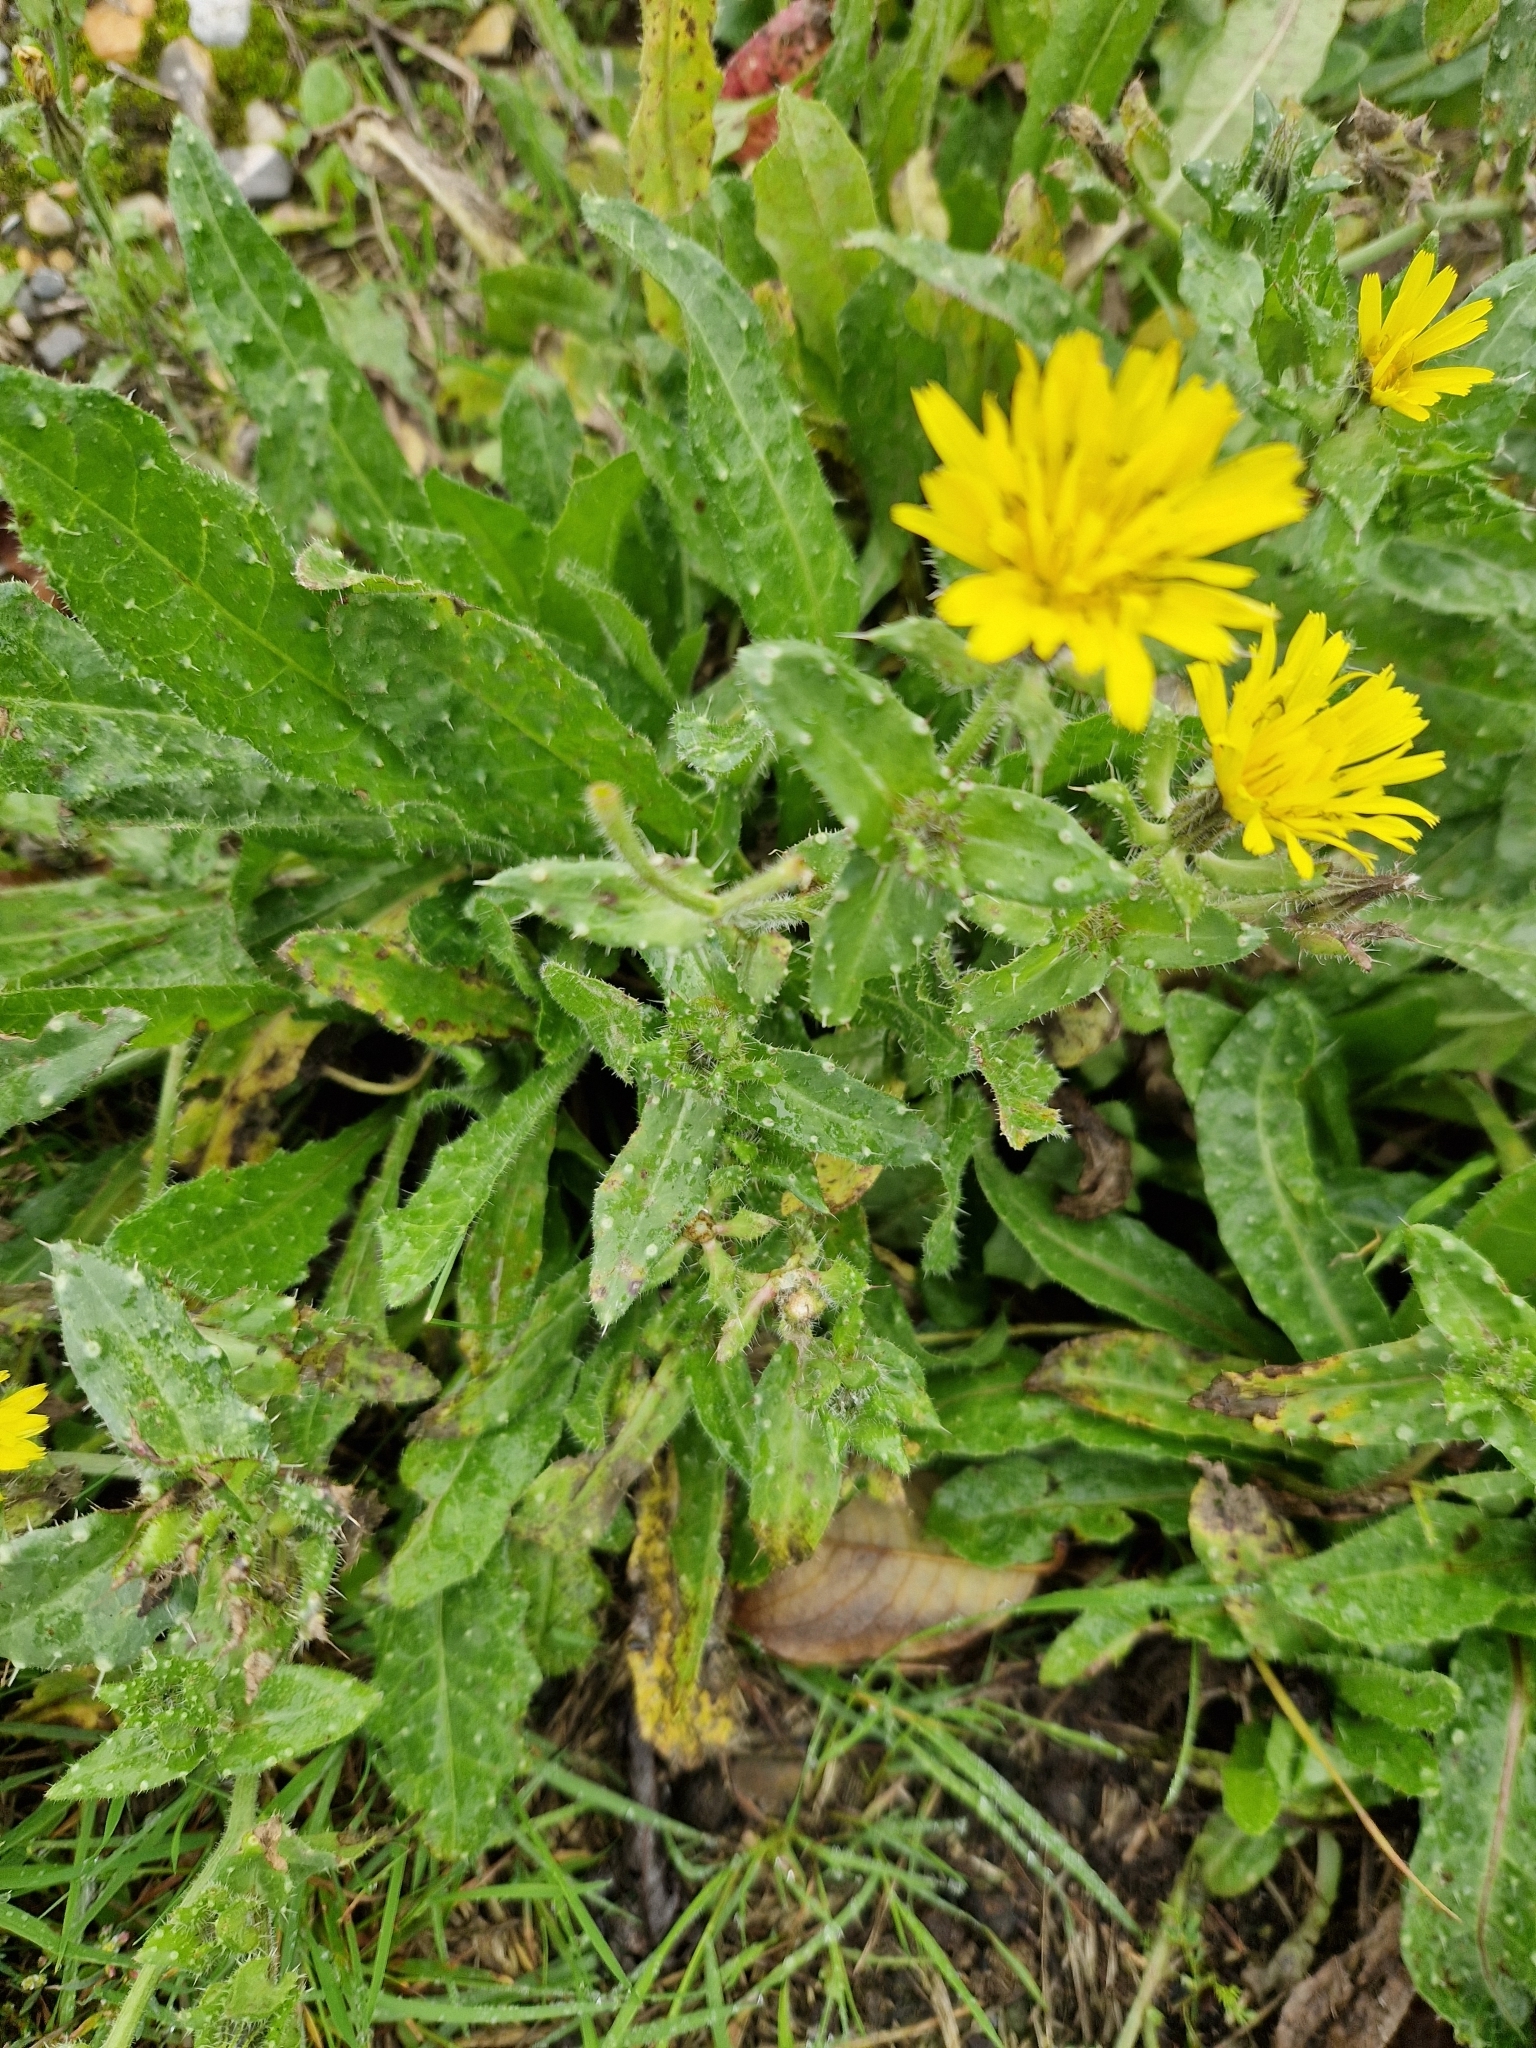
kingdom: Plantae
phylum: Tracheophyta
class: Magnoliopsida
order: Asterales
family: Asteraceae
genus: Helminthotheca
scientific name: Helminthotheca echioides
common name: Ox-tongue
